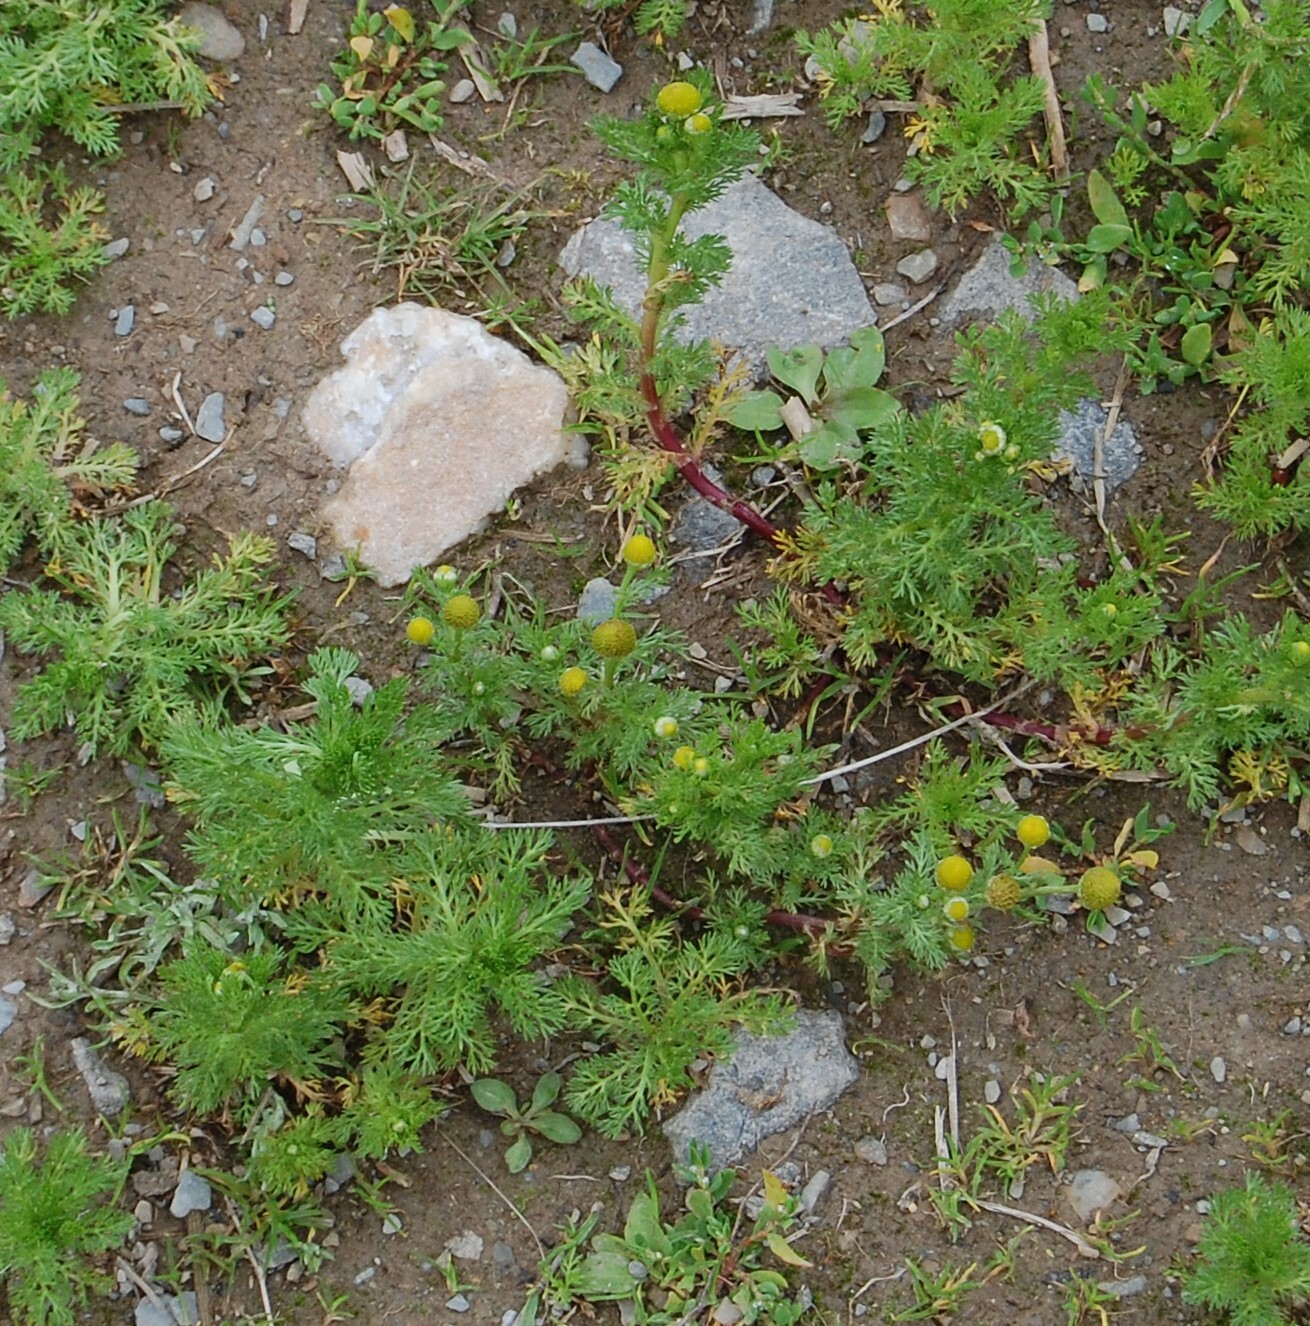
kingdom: Plantae
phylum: Tracheophyta
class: Magnoliopsida
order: Asterales
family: Asteraceae
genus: Matricaria
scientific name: Matricaria discoidea
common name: Disc mayweed
